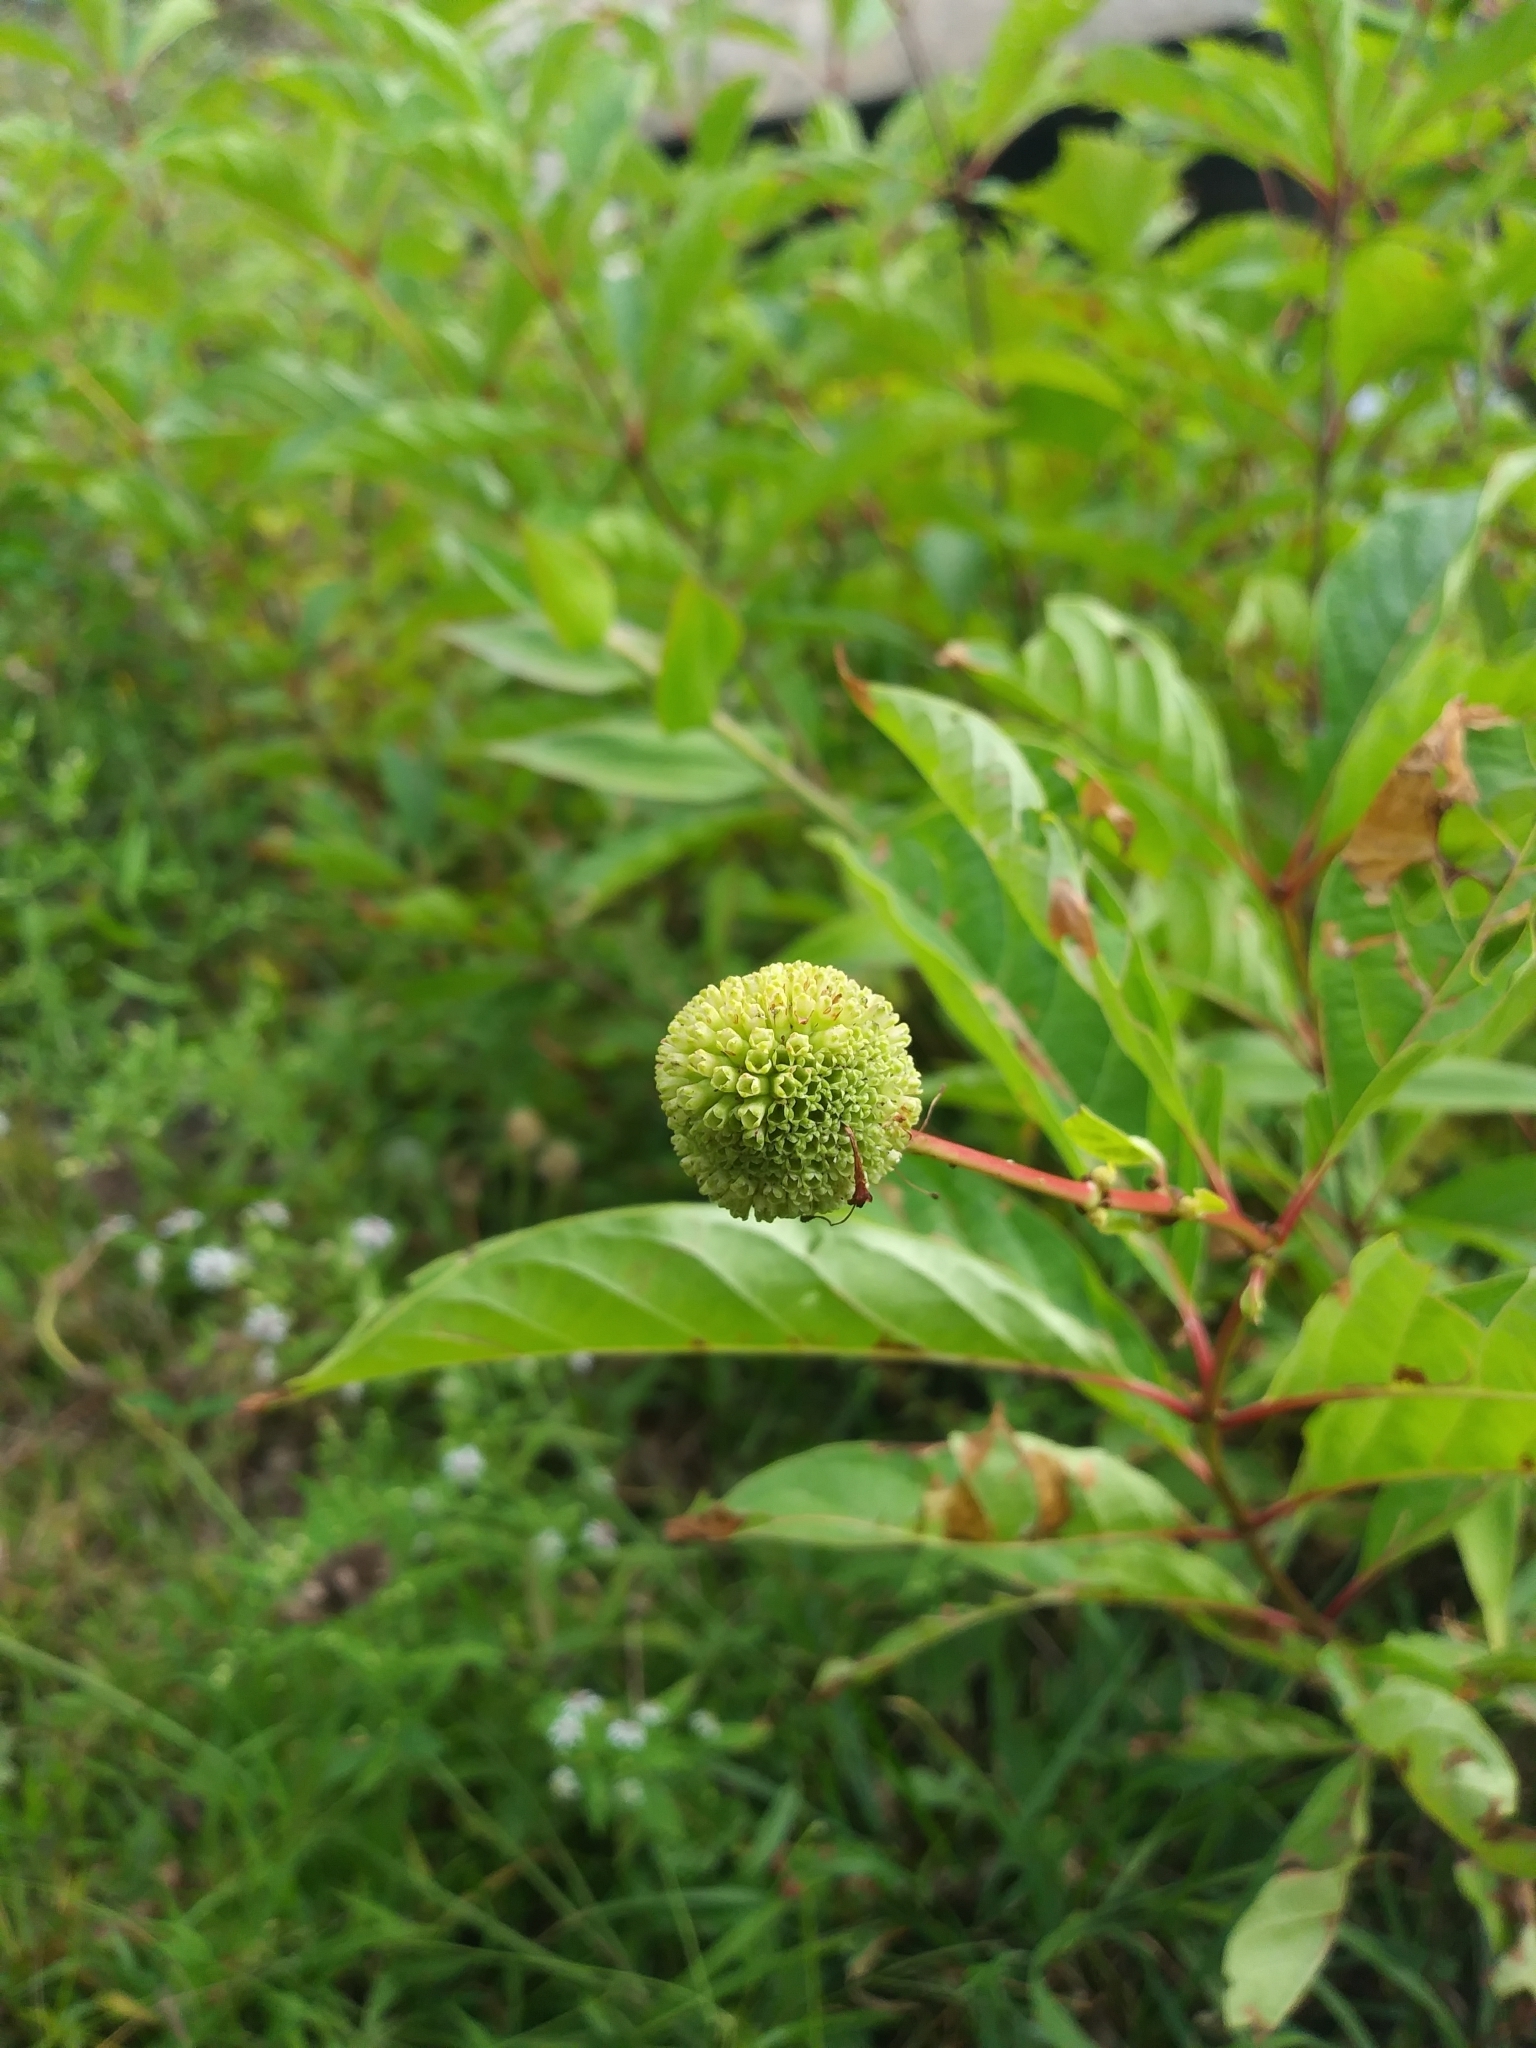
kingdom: Plantae
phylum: Tracheophyta
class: Magnoliopsida
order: Gentianales
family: Rubiaceae
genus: Cephalanthus
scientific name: Cephalanthus occidentalis
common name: Button-willow
